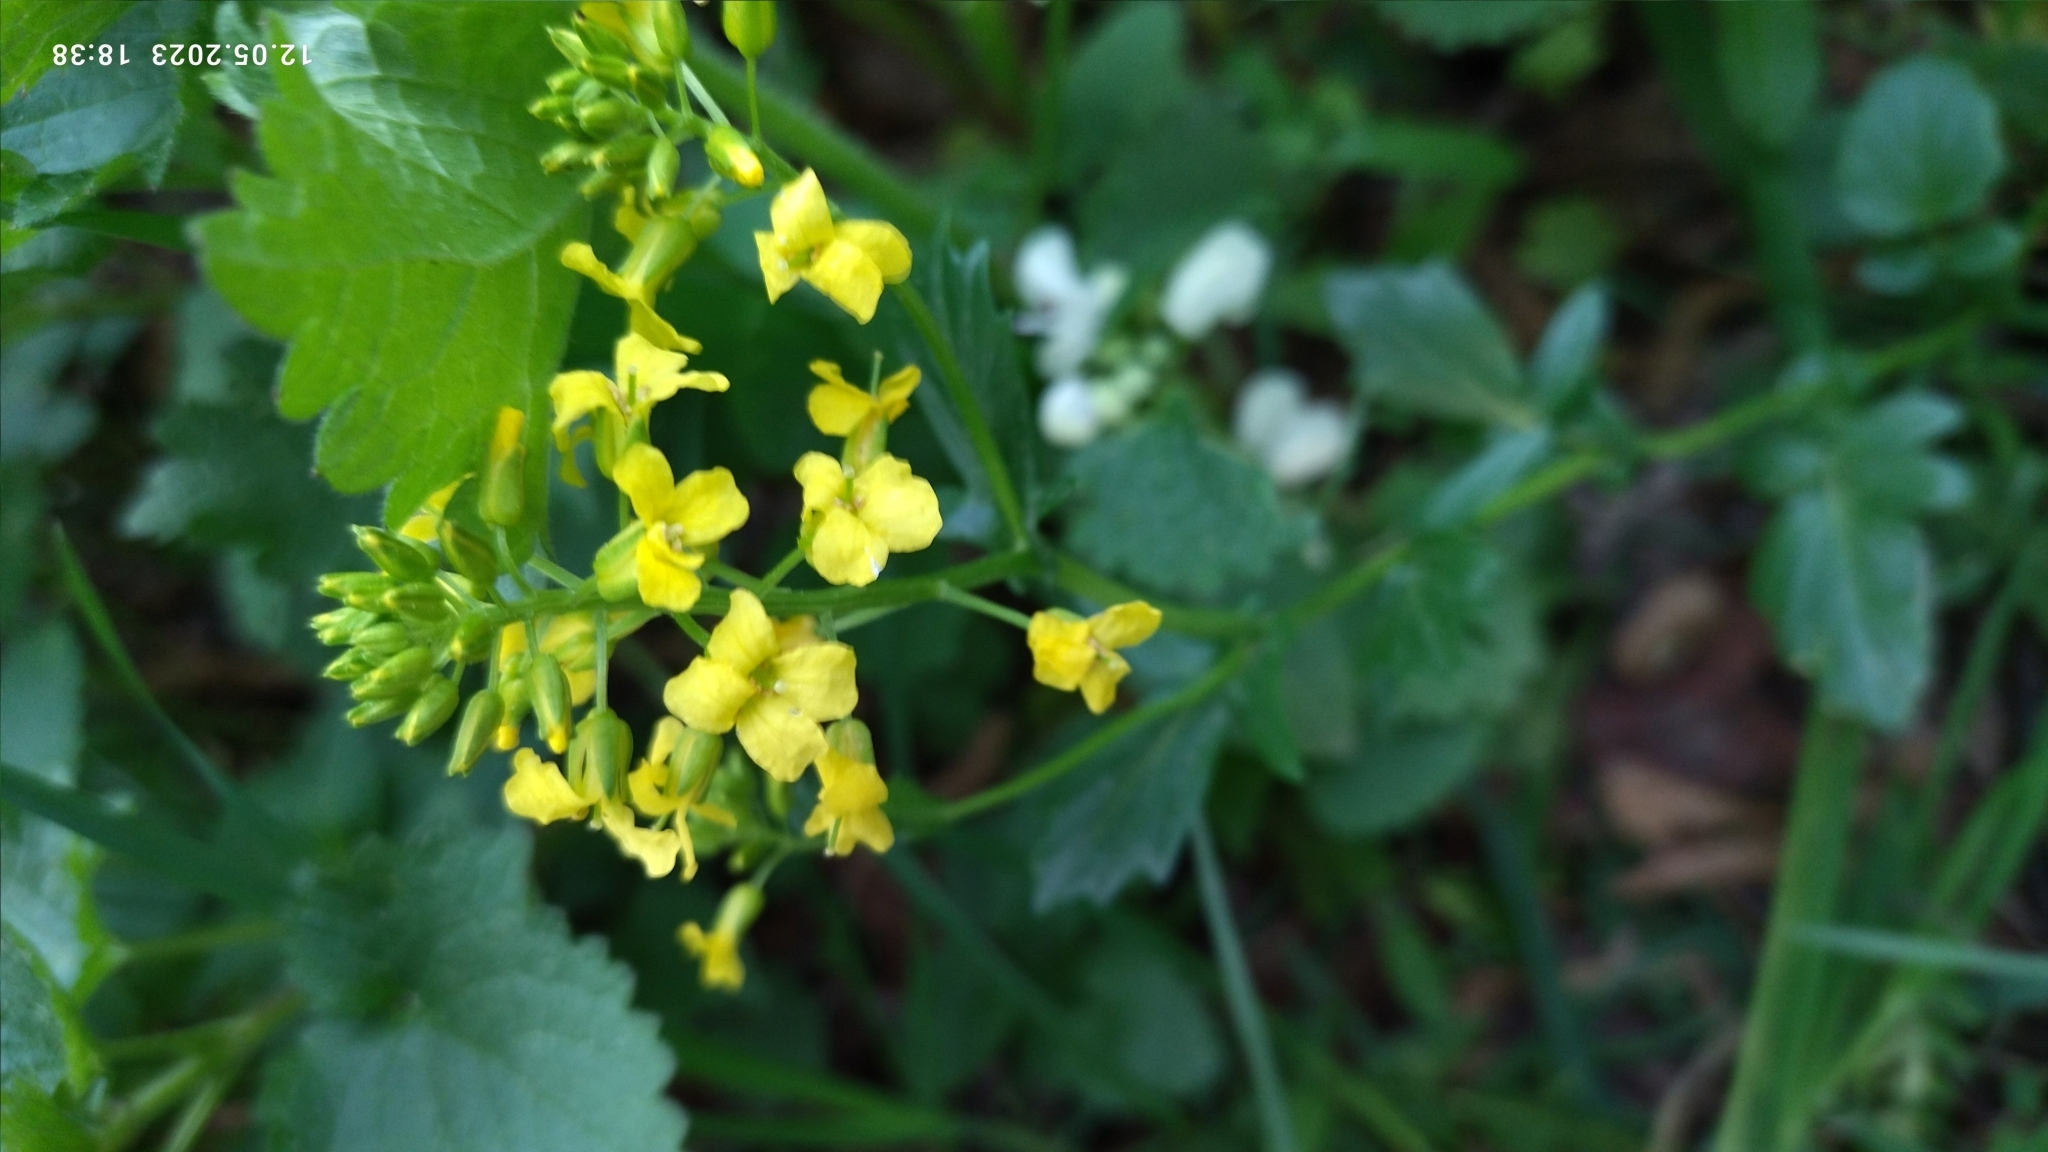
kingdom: Plantae
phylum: Tracheophyta
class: Magnoliopsida
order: Brassicales
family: Brassicaceae
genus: Barbarea
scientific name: Barbarea vulgaris
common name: Cressy-greens
